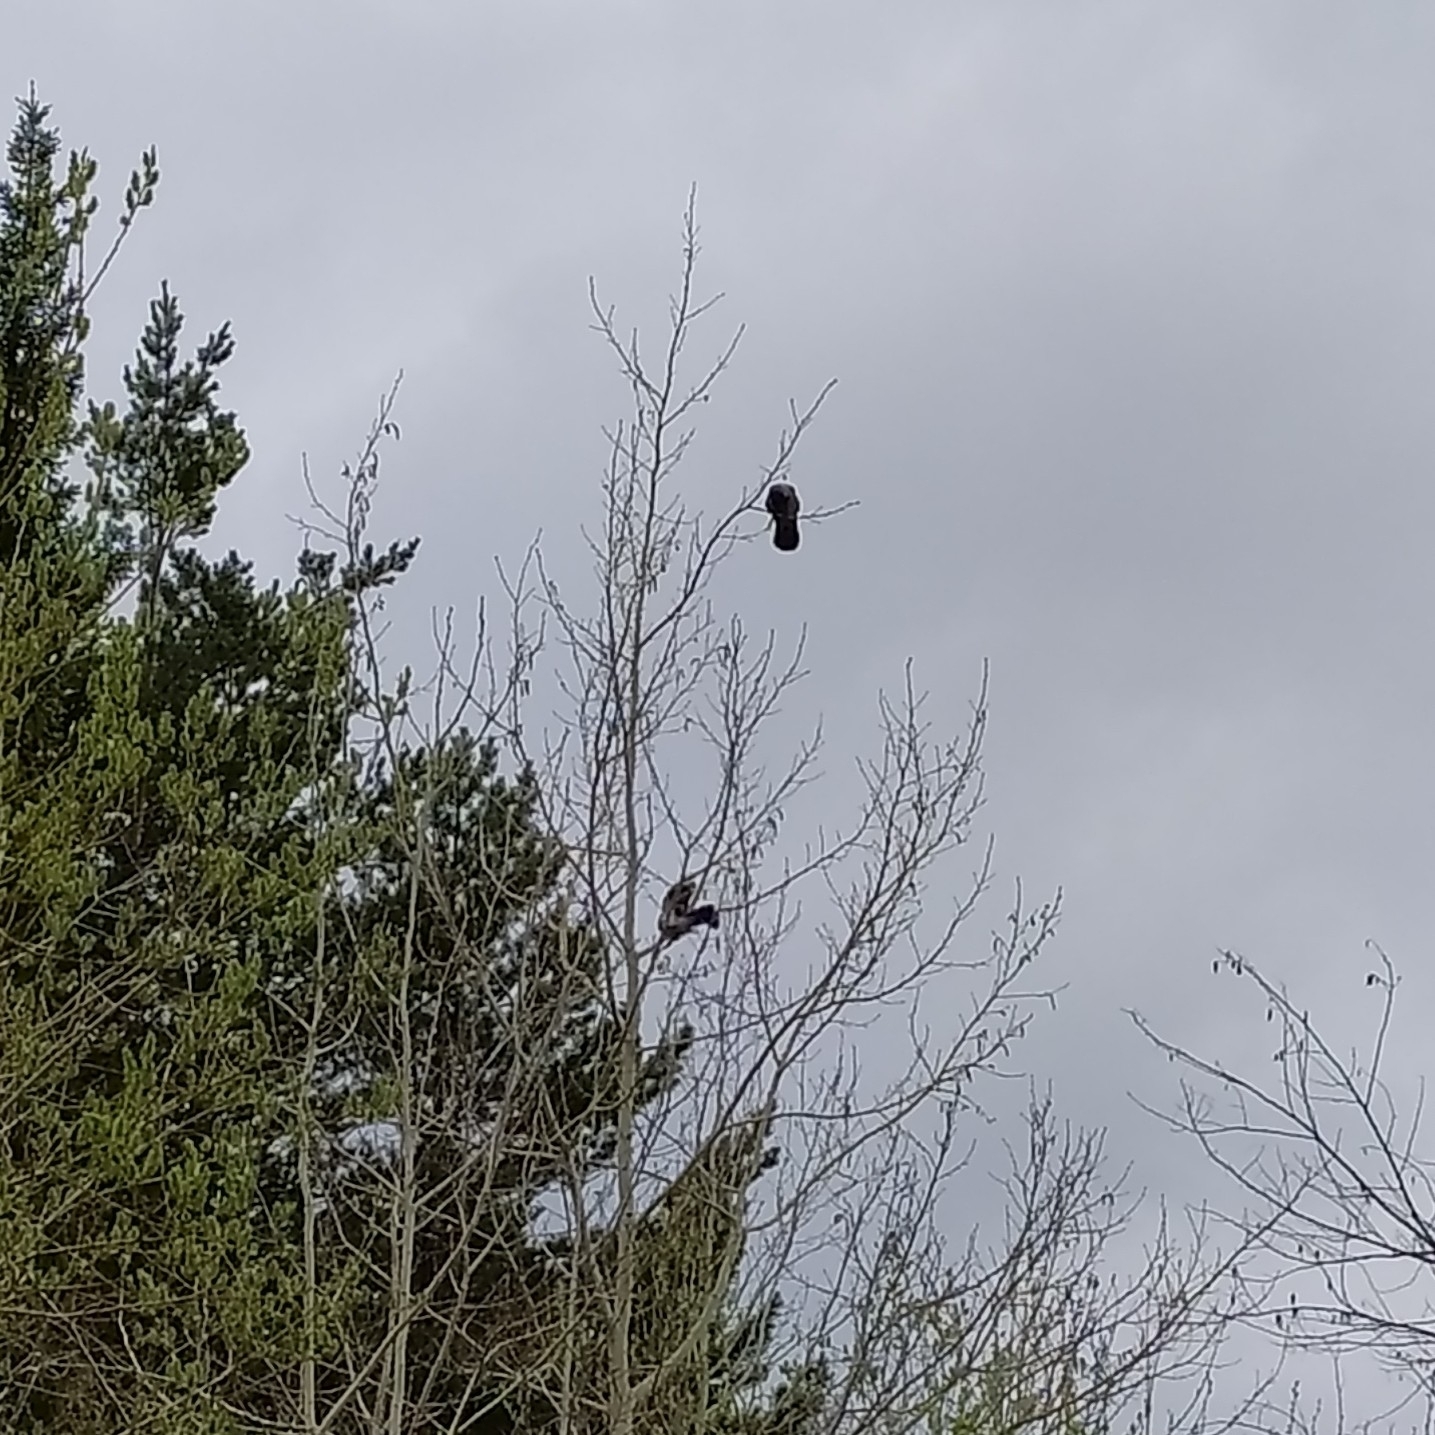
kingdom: Animalia
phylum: Chordata
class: Aves
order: Passeriformes
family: Corvidae
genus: Corvus
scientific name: Corvus cornix
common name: Hooded crow
